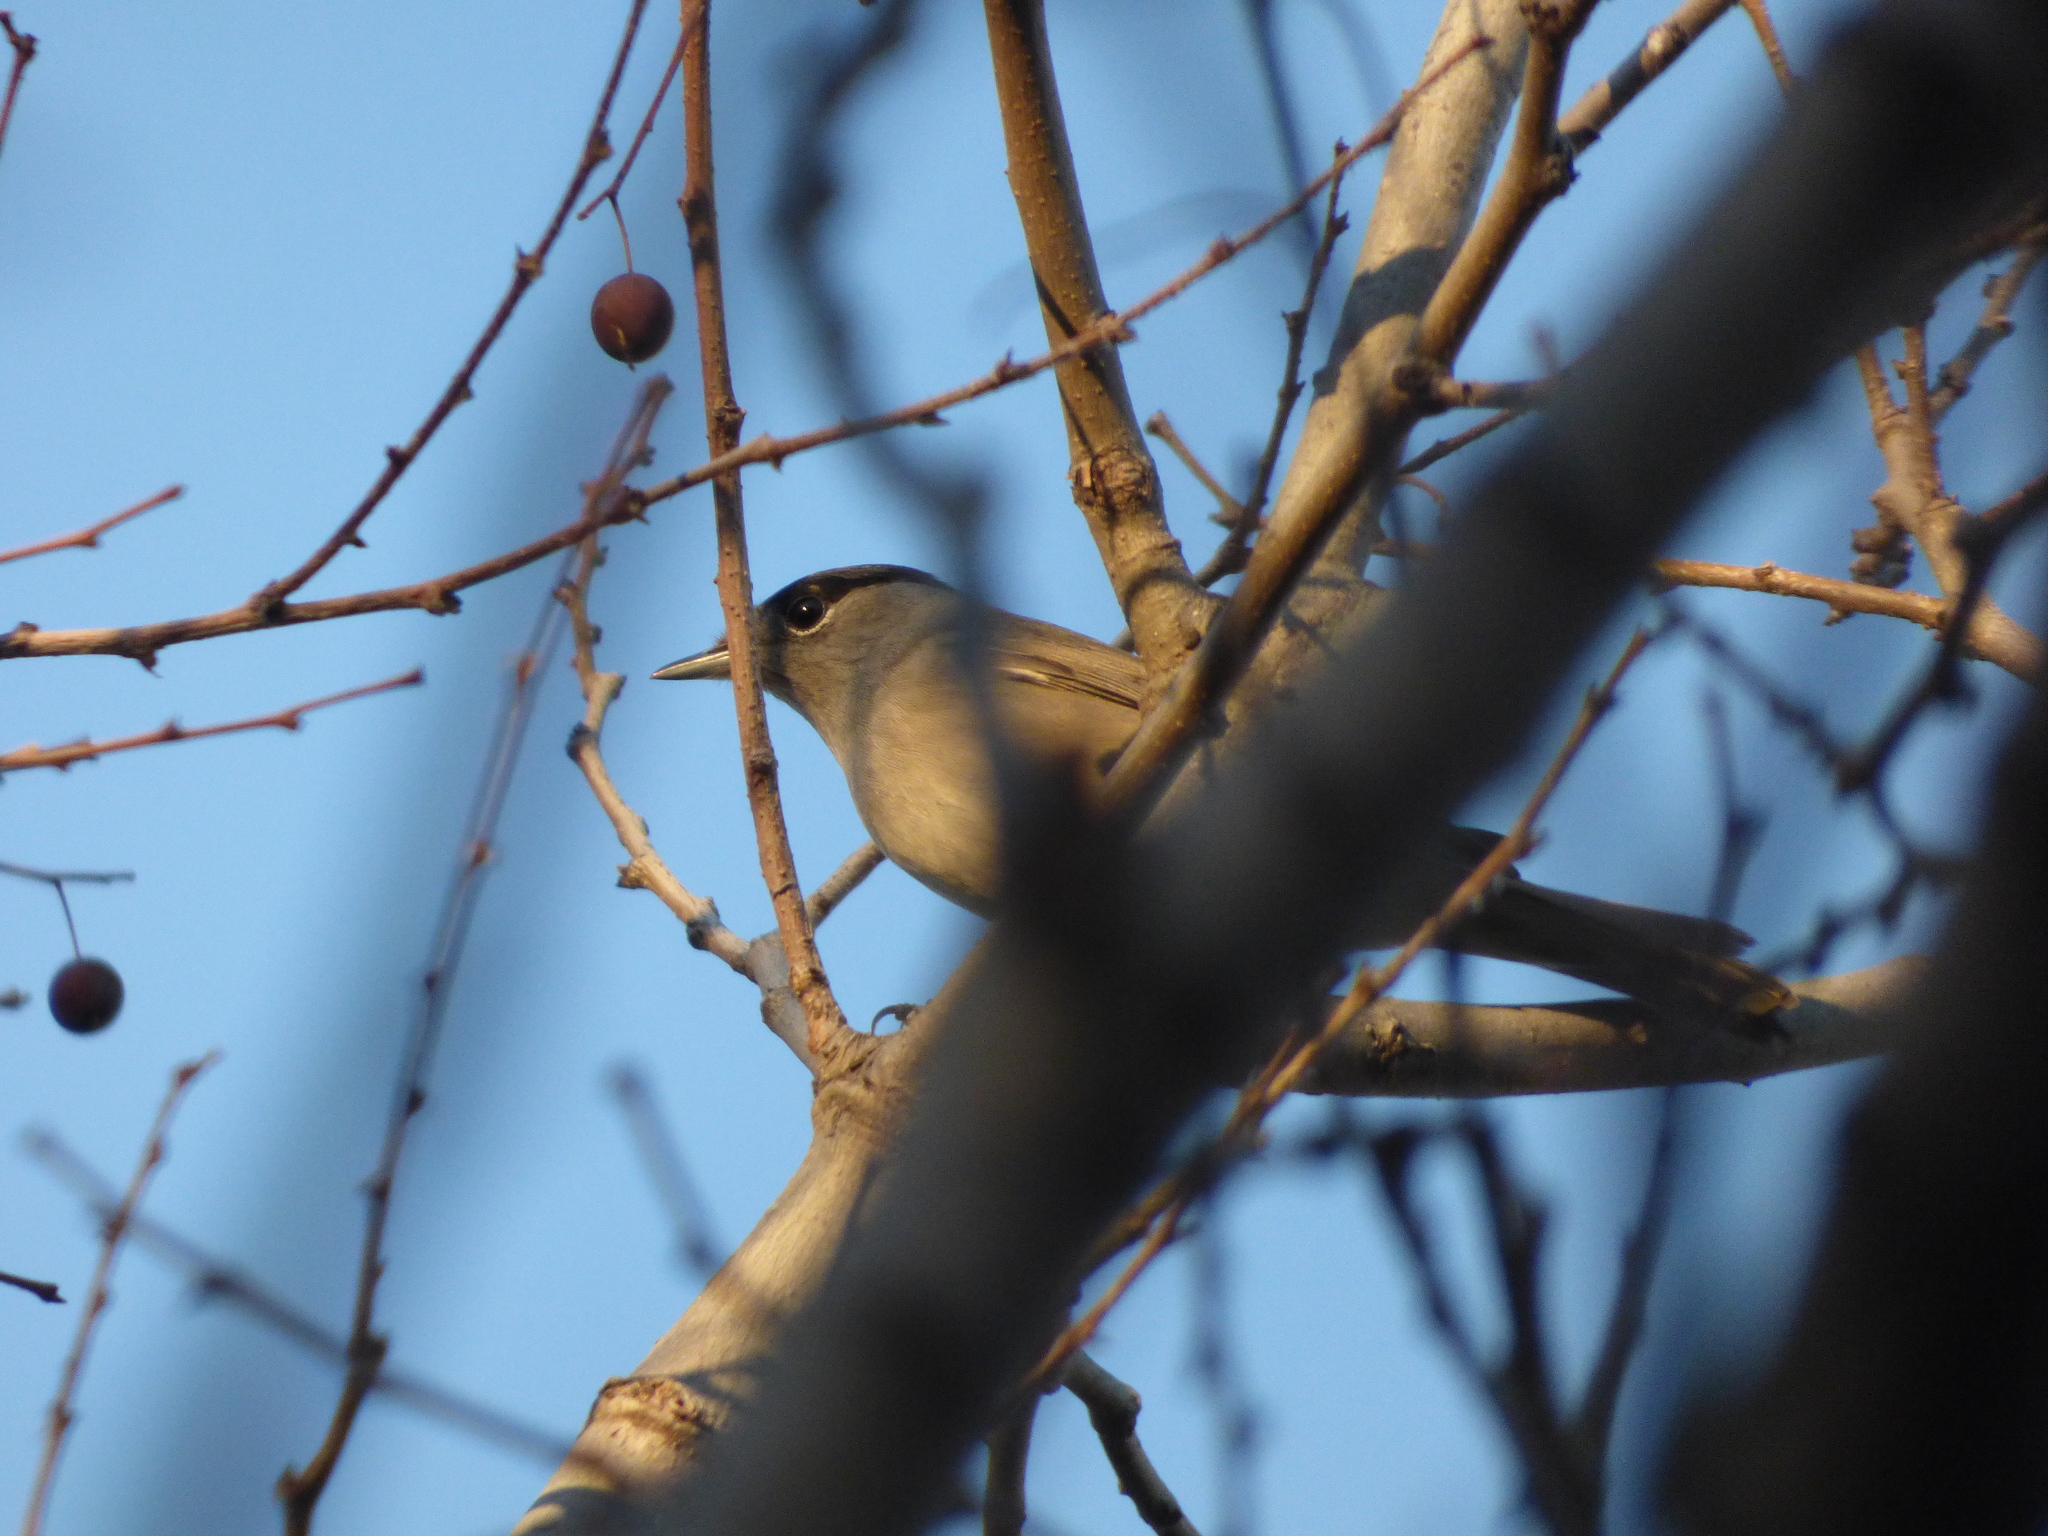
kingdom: Animalia
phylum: Chordata
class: Aves
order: Passeriformes
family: Sylviidae
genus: Sylvia
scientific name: Sylvia atricapilla
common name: Eurasian blackcap
